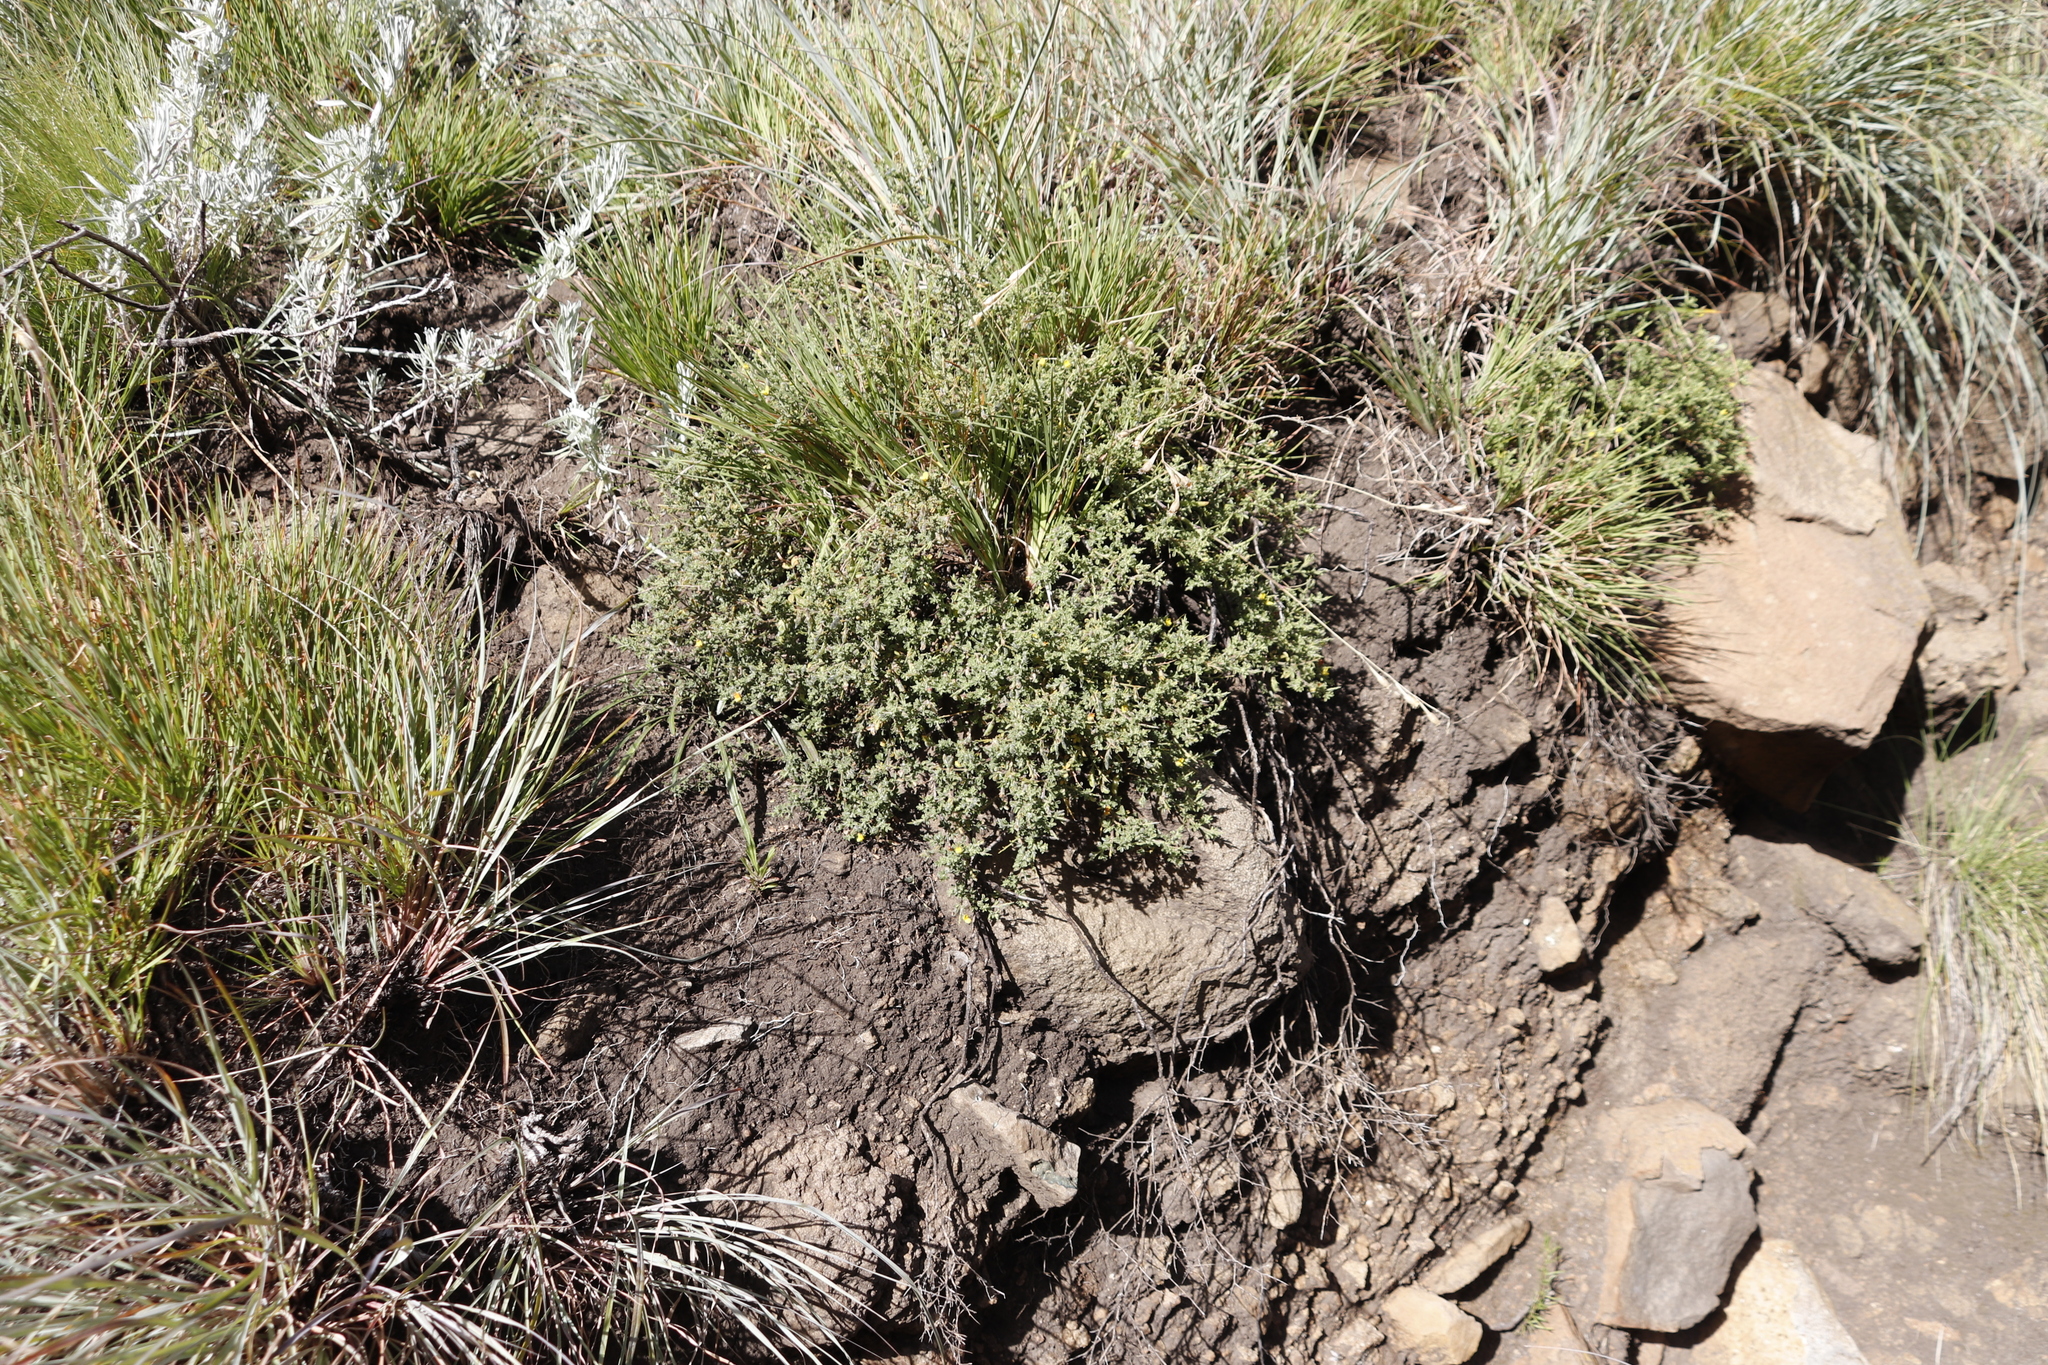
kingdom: Plantae
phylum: Tracheophyta
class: Magnoliopsida
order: Fabales
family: Fabaceae
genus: Melolobium
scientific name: Melolobium microphyllum
